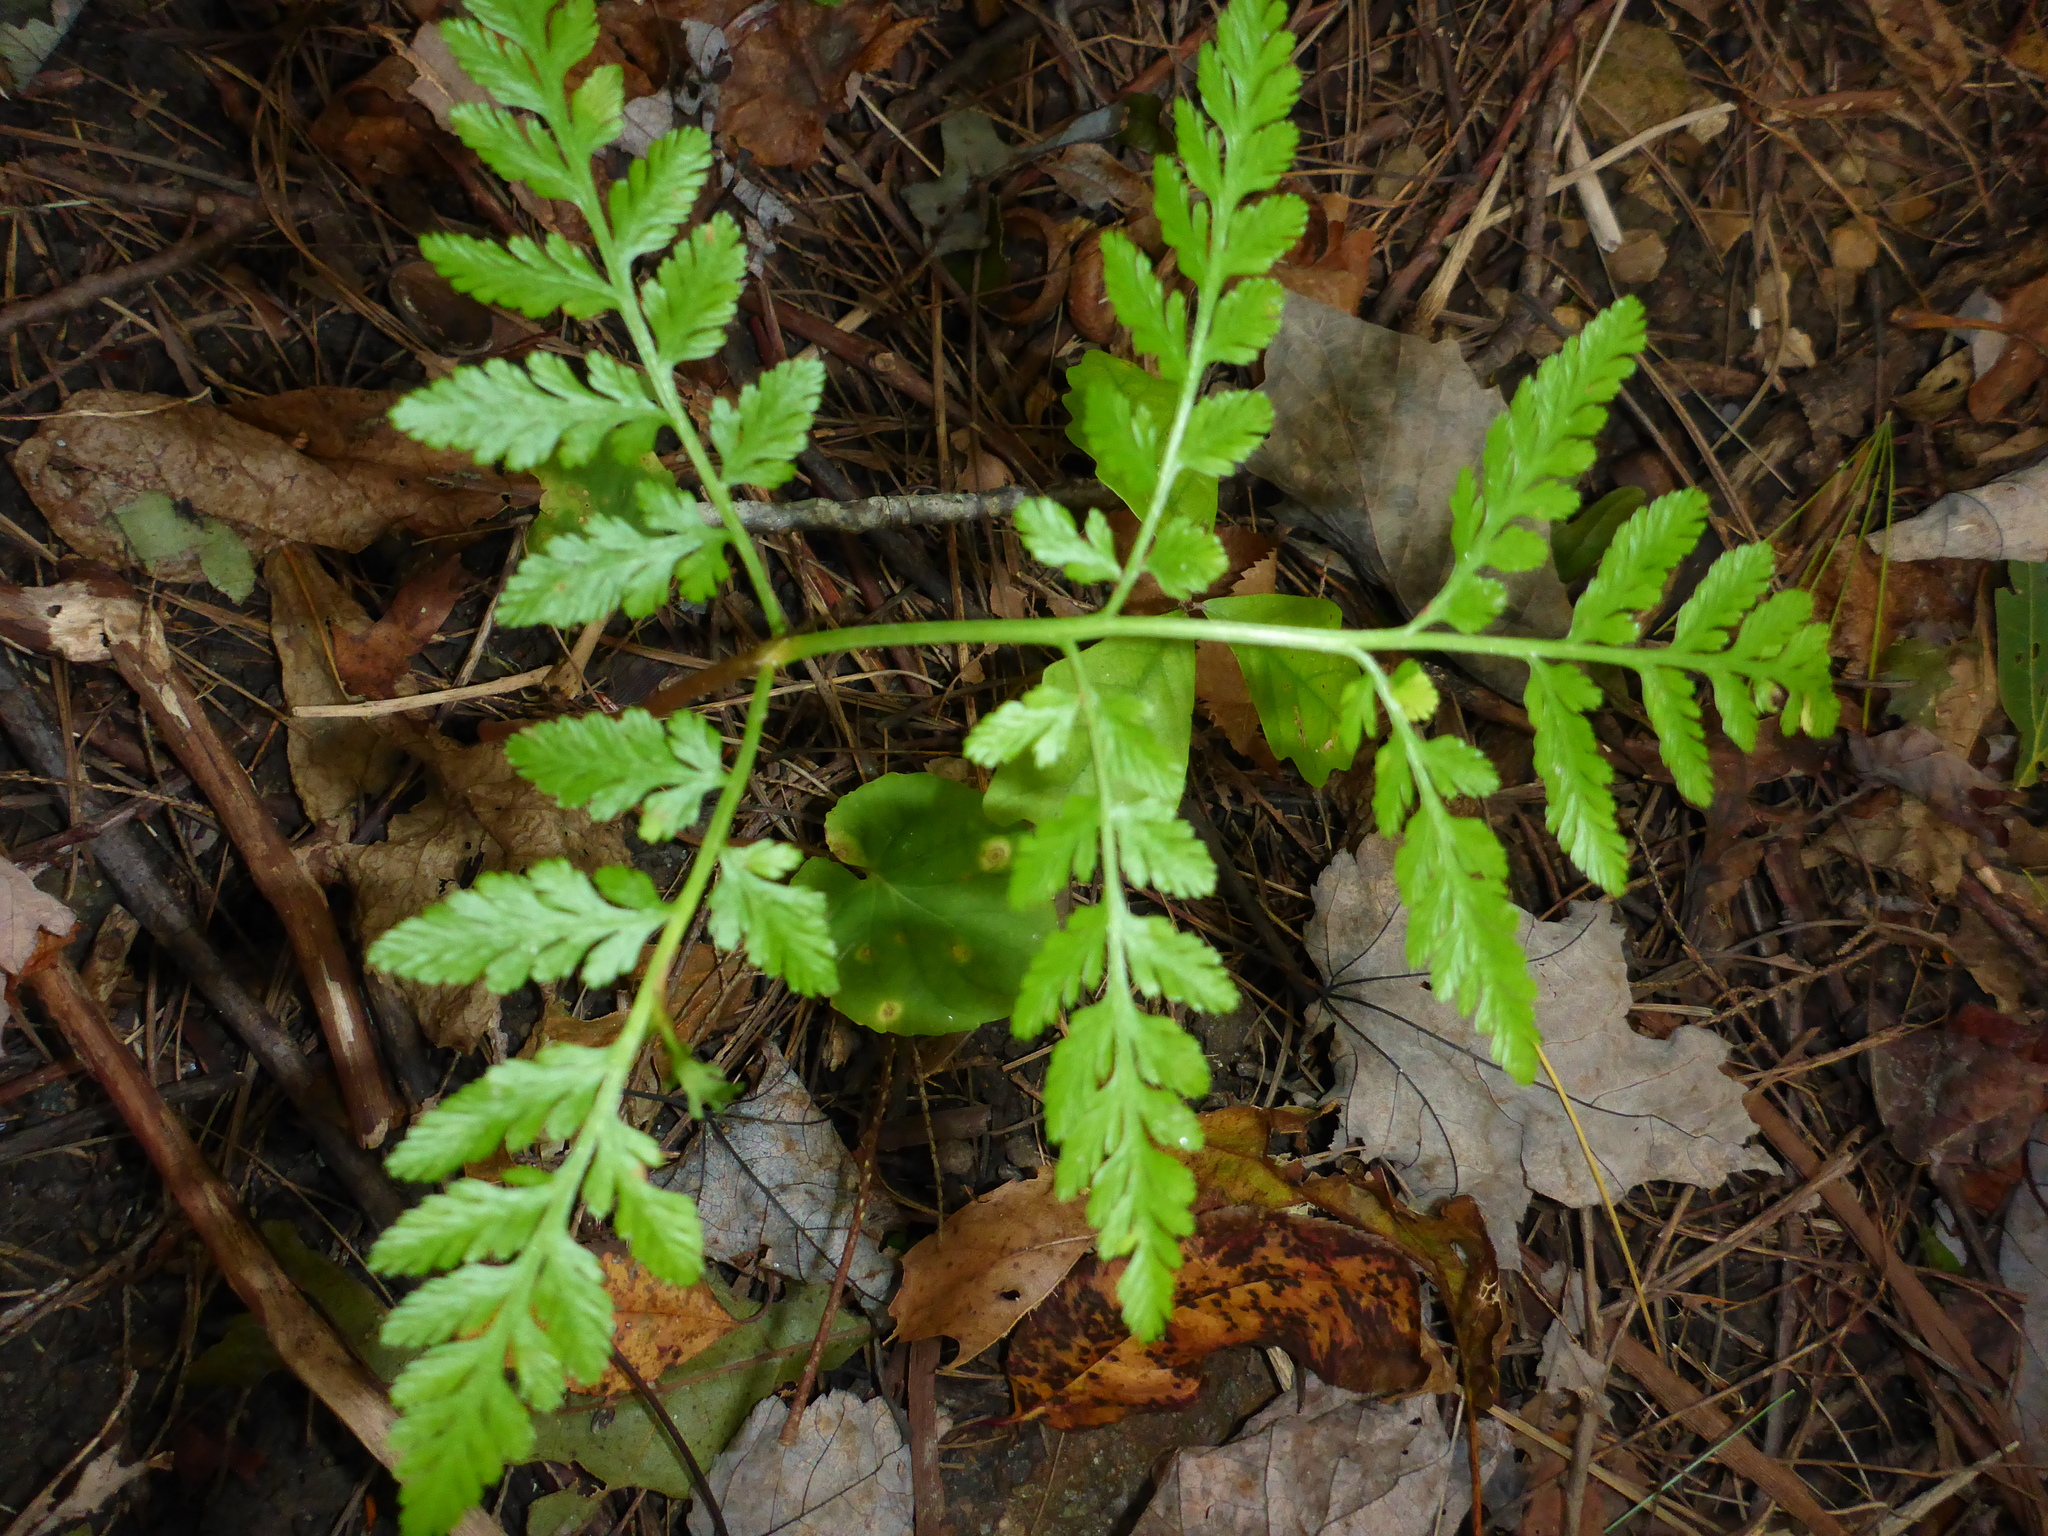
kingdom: Plantae
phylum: Tracheophyta
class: Polypodiopsida
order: Ophioglossales
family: Ophioglossaceae
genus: Botrypus
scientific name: Botrypus virginianus
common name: Common grapefern
